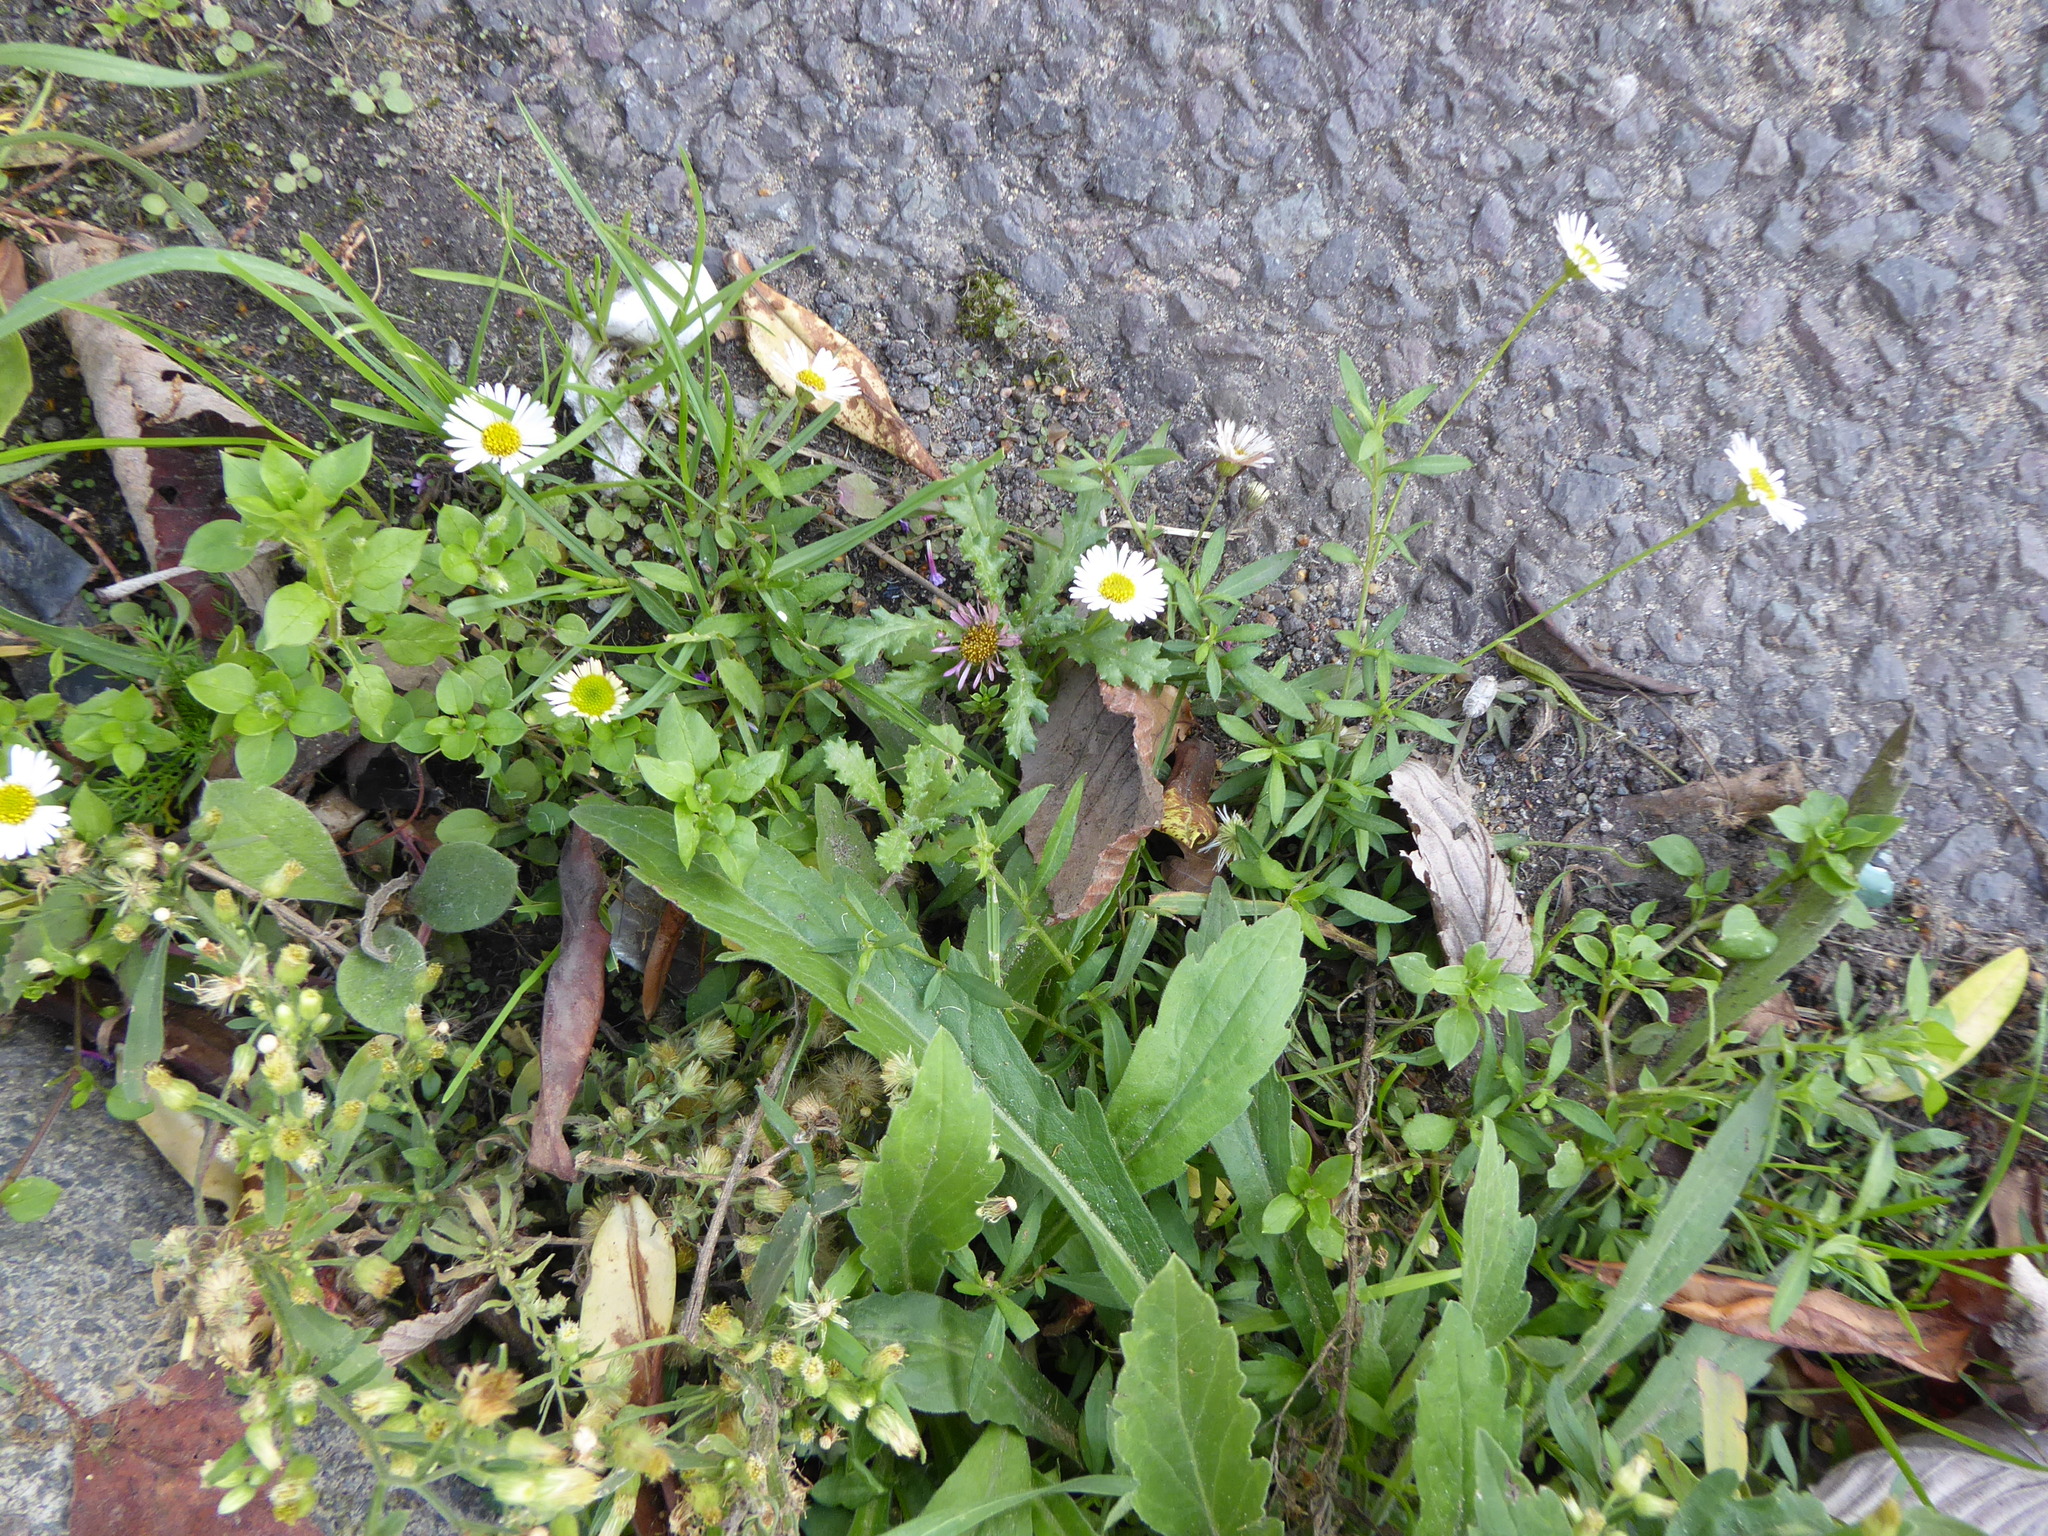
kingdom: Plantae
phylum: Tracheophyta
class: Magnoliopsida
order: Asterales
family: Asteraceae
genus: Erigeron
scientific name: Erigeron karvinskianus
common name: Mexican fleabane
